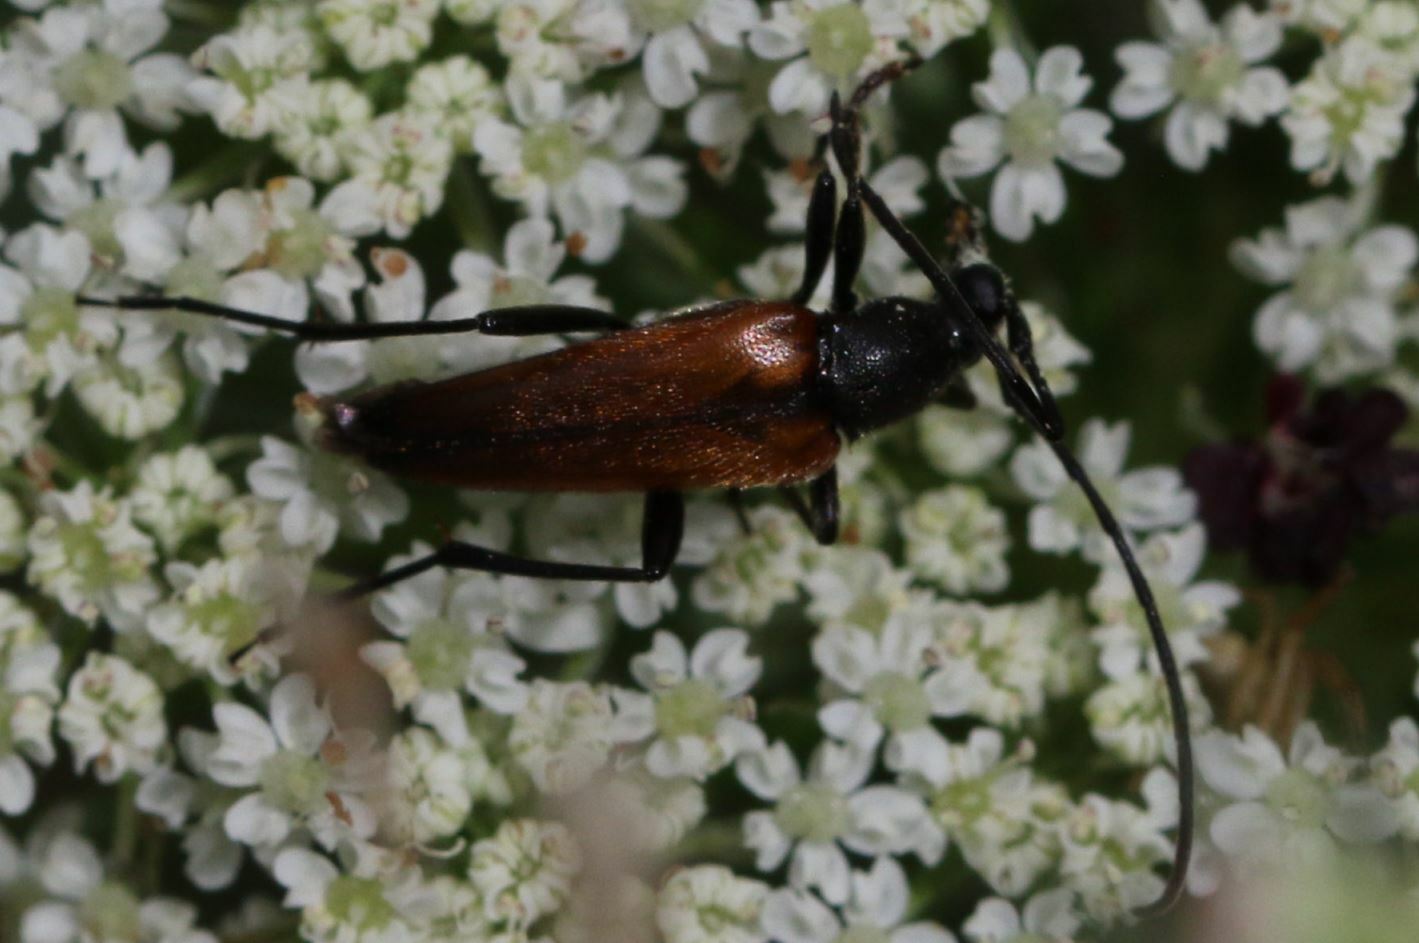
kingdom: Animalia
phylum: Arthropoda
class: Insecta
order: Coleoptera
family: Cerambycidae
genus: Stenurella
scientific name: Stenurella melanura
